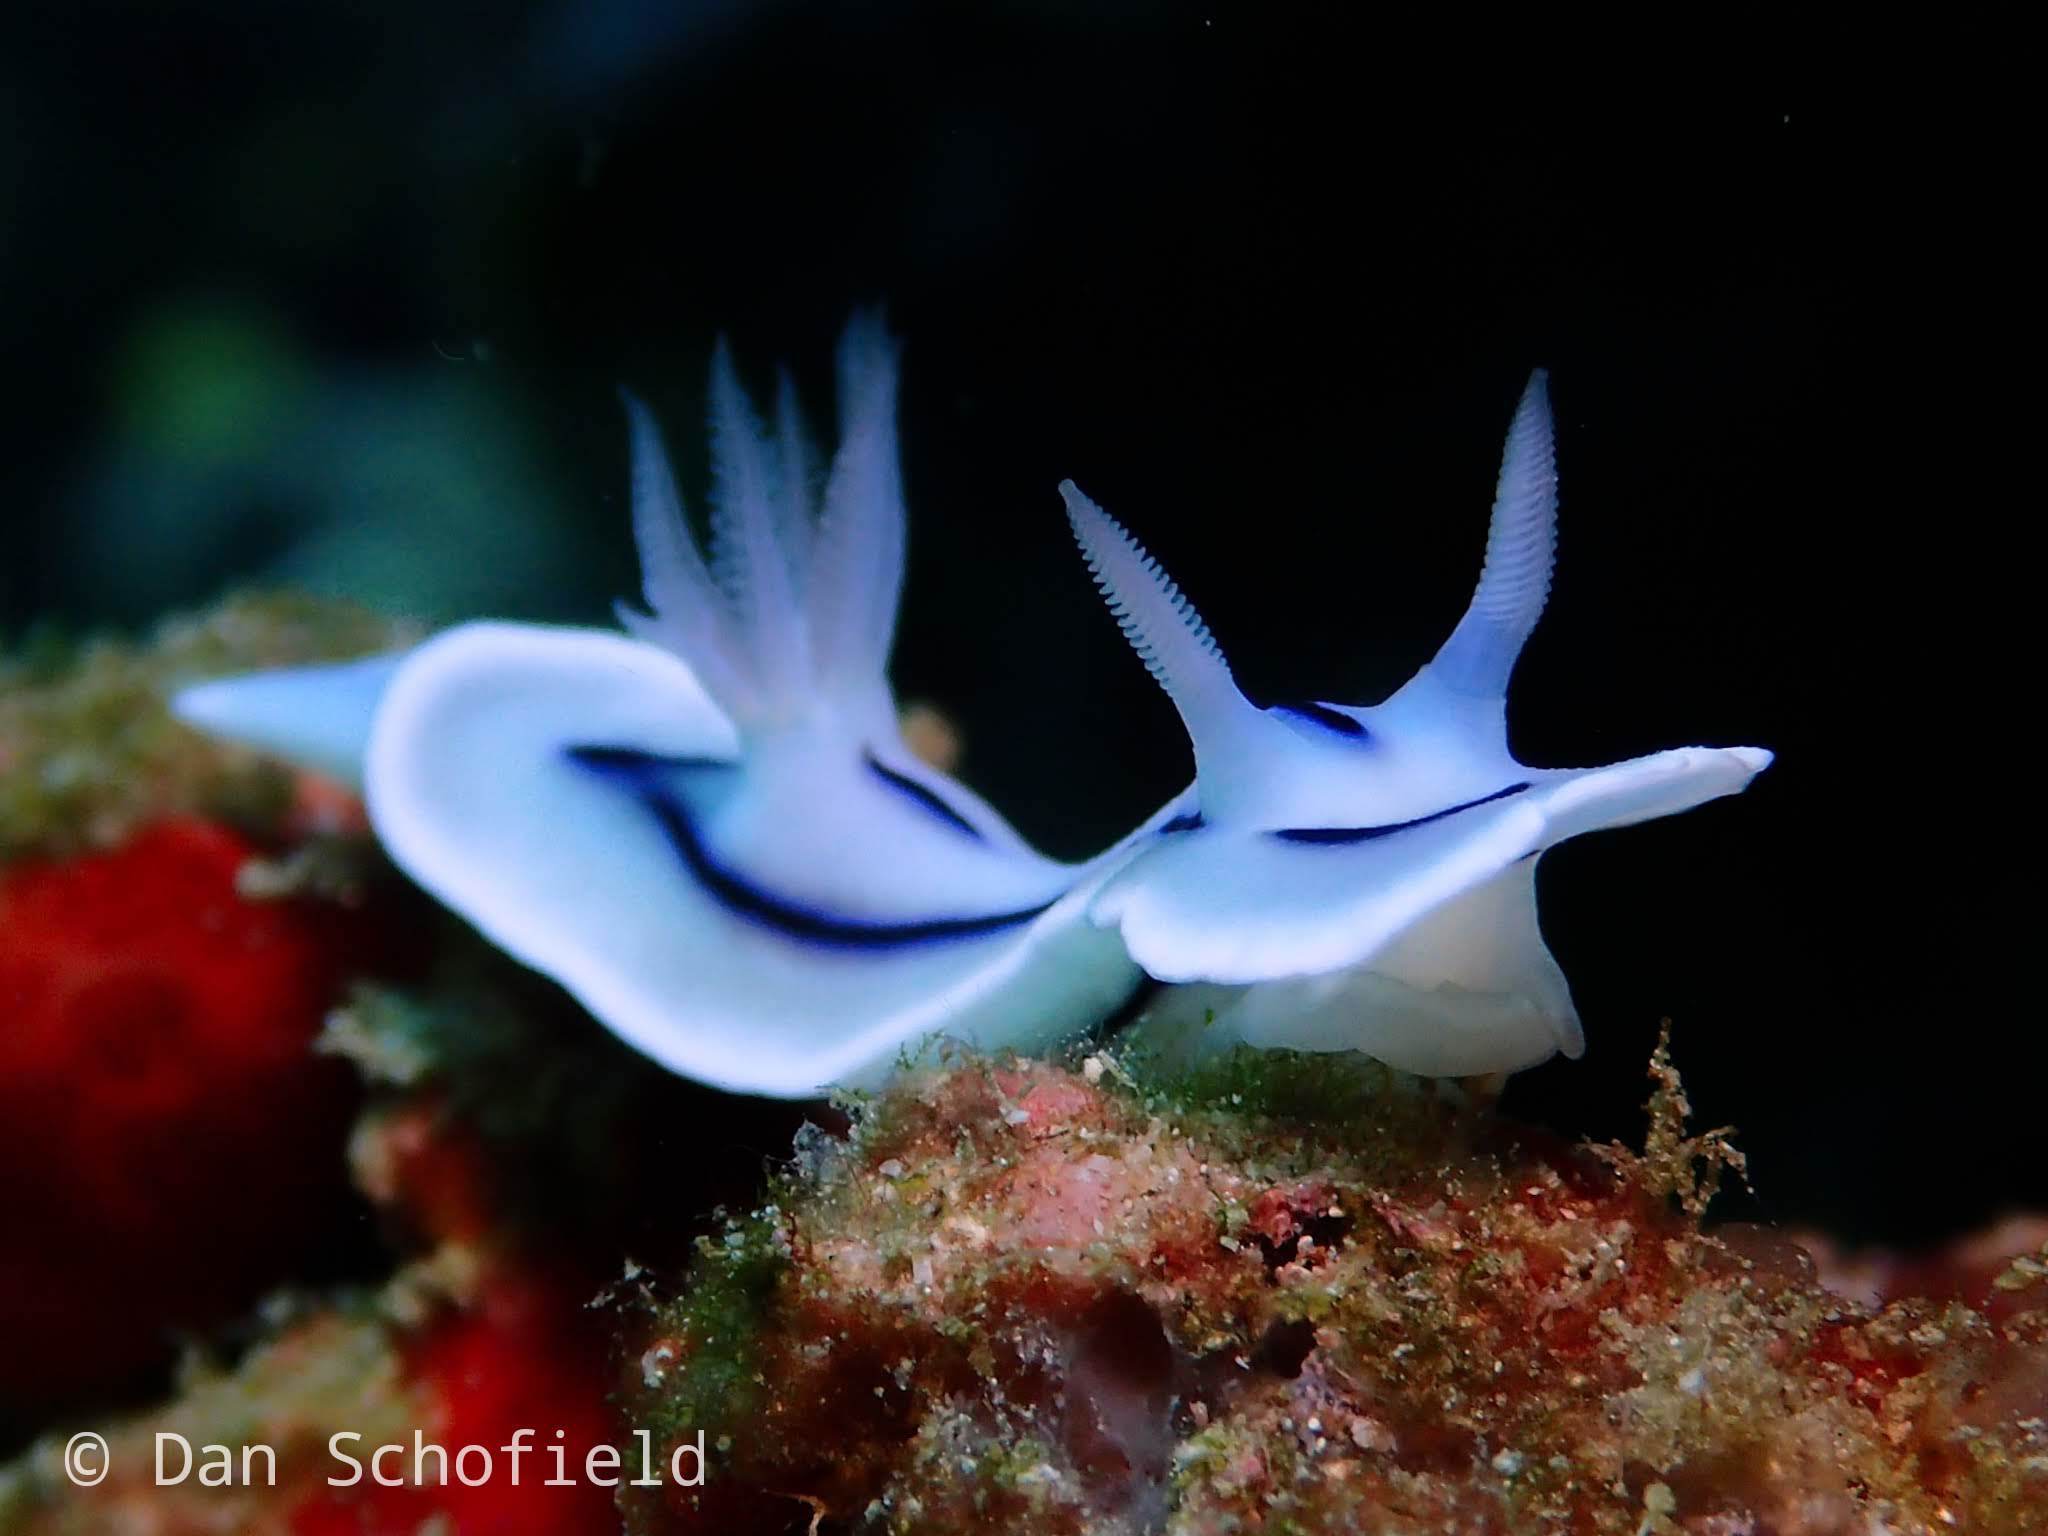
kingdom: Animalia
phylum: Mollusca
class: Gastropoda
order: Nudibranchia
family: Chromodorididae
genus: Chromodoris
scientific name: Chromodoris lochi
